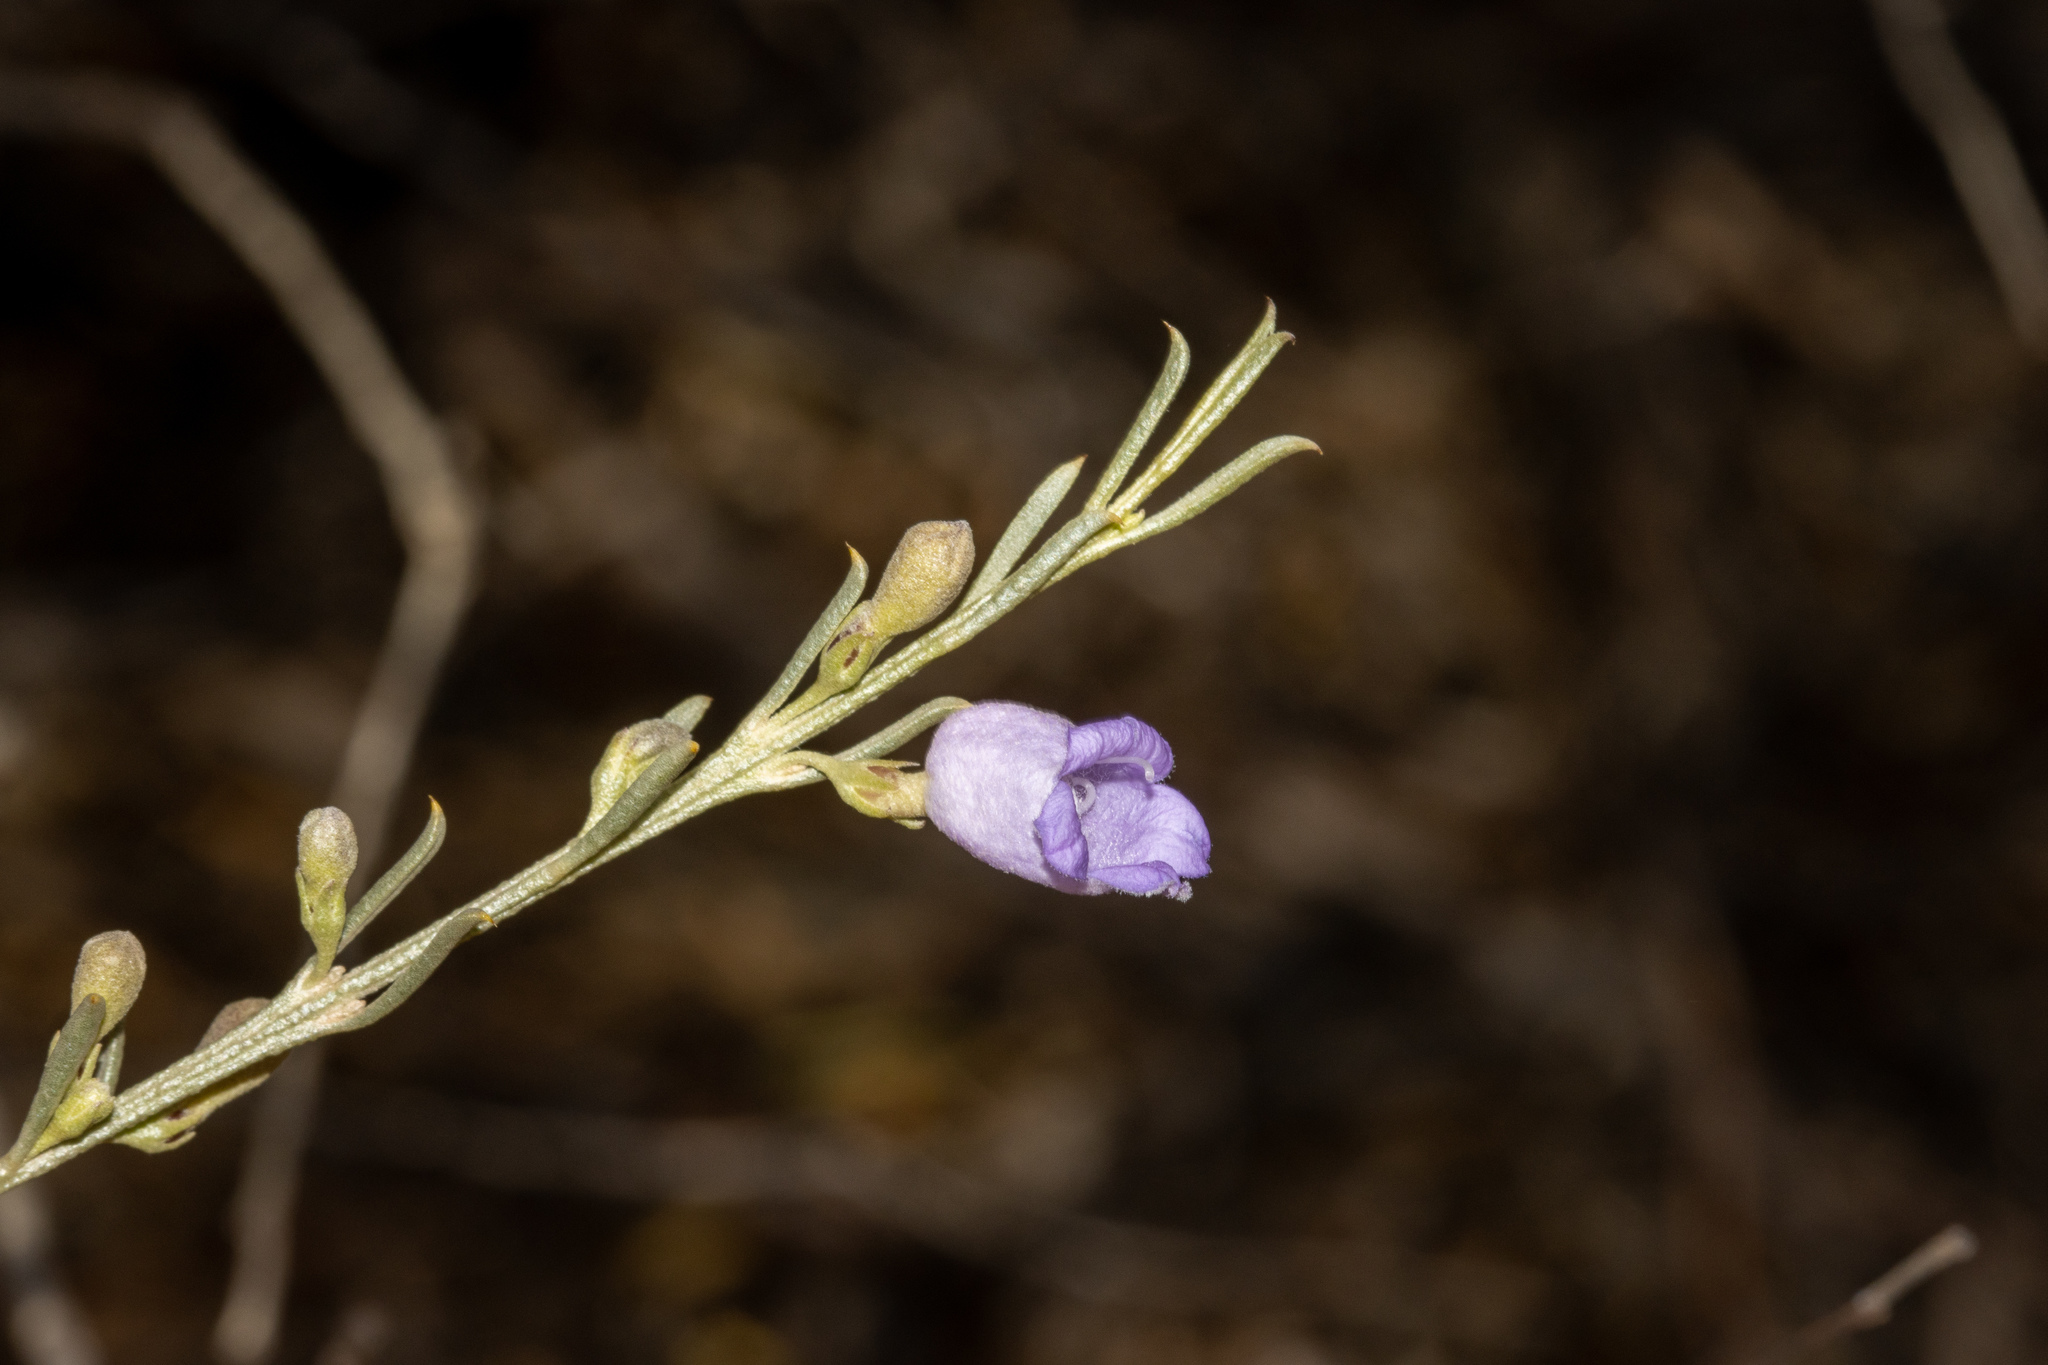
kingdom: Plantae
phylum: Tracheophyta
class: Magnoliopsida
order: Lamiales
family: Scrophulariaceae
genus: Eremophila
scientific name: Eremophila scoparia
